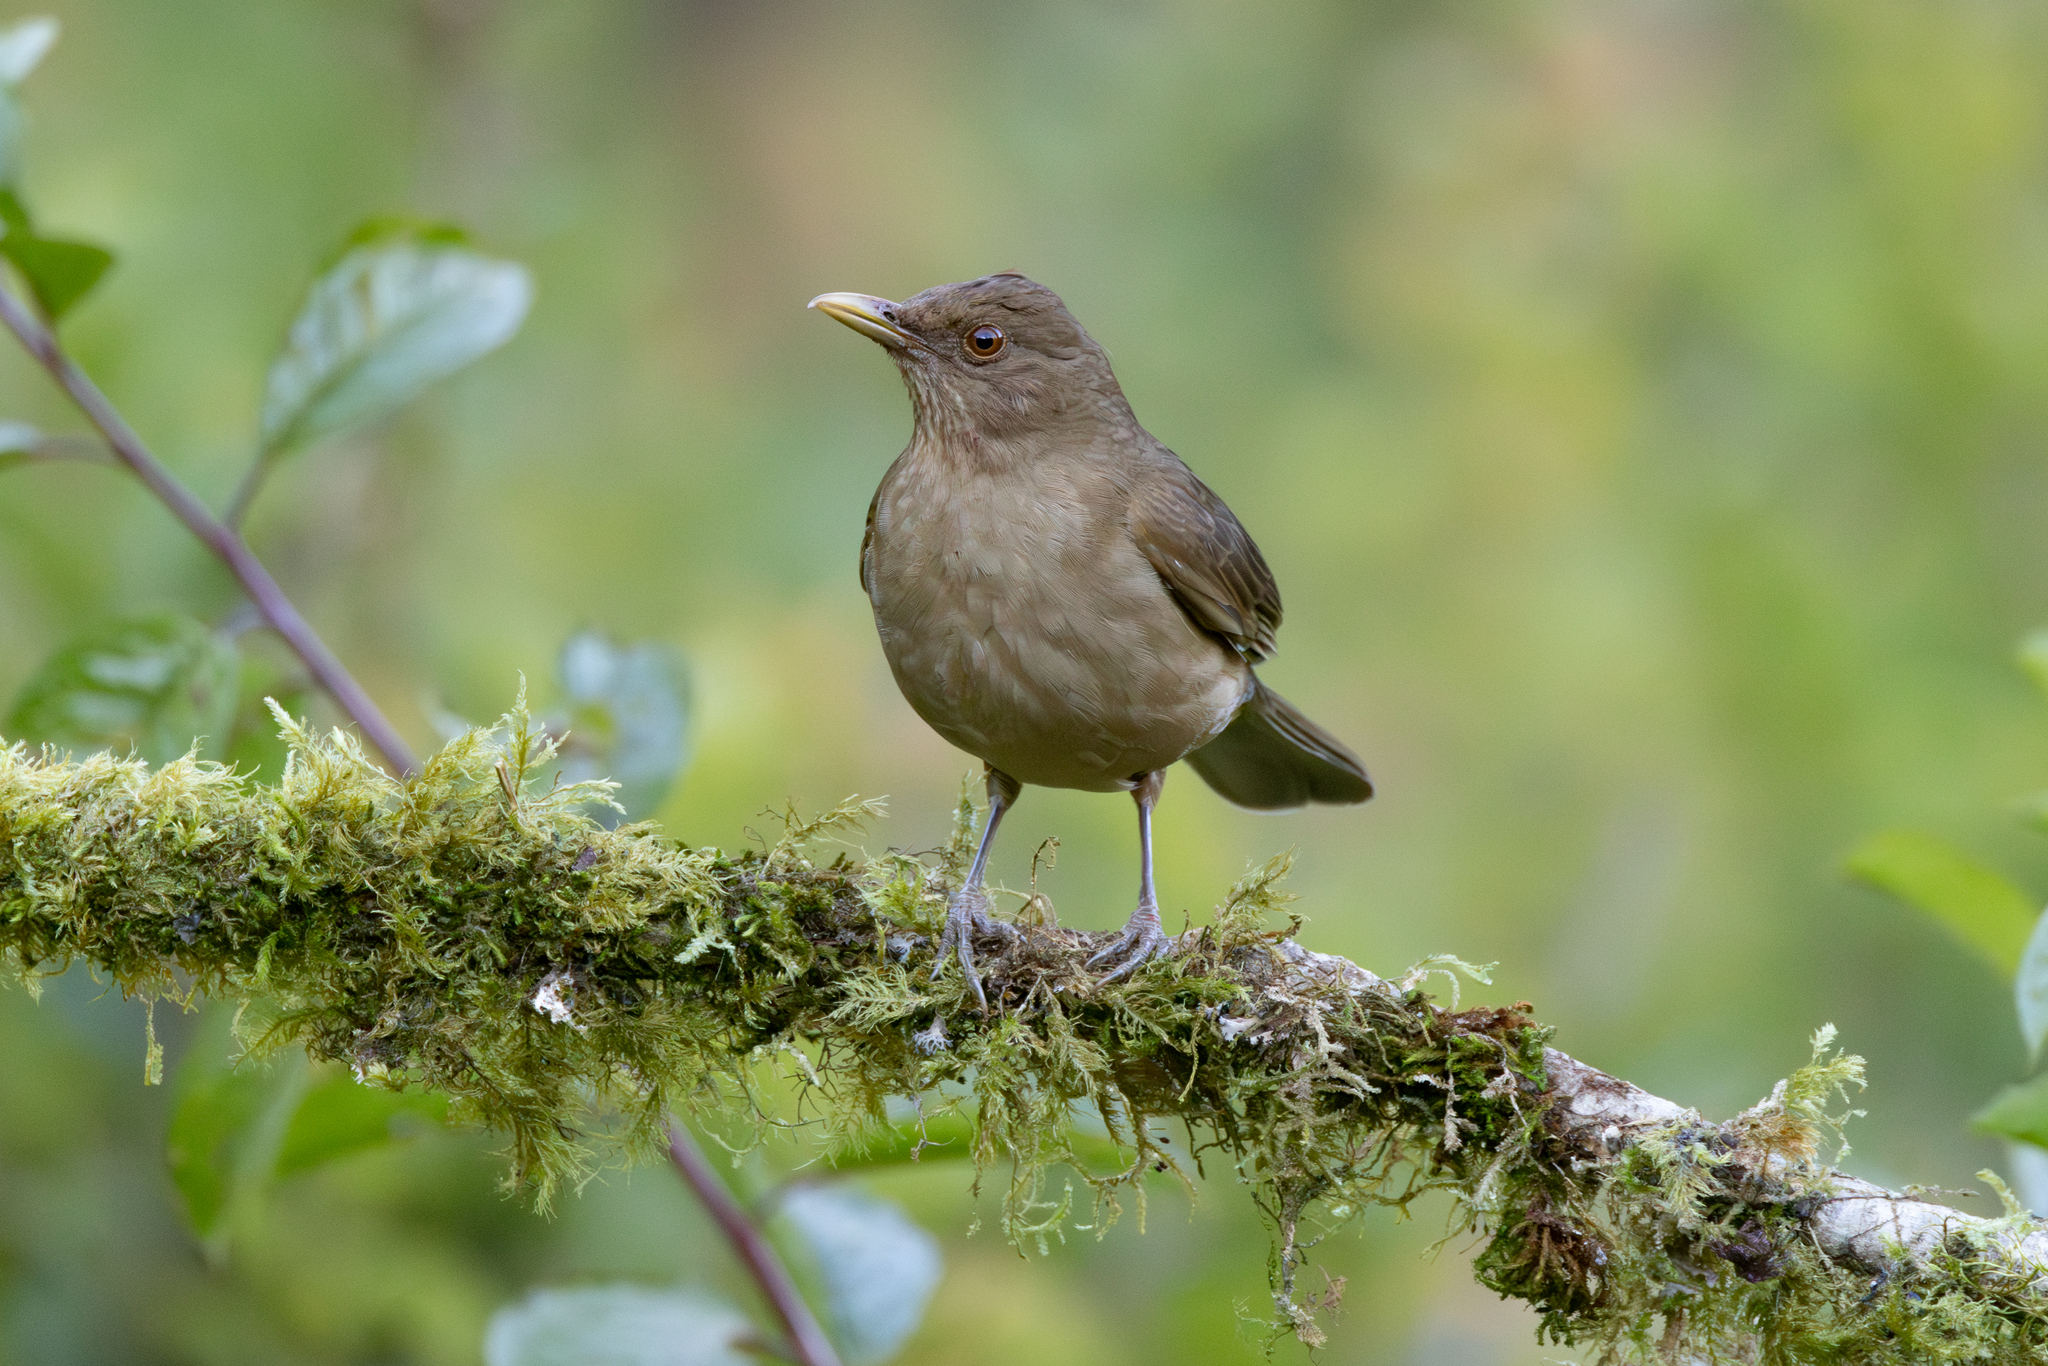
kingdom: Animalia
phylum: Chordata
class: Aves
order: Passeriformes
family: Turdidae
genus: Turdus
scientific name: Turdus grayi
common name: Clay-colored thrush
